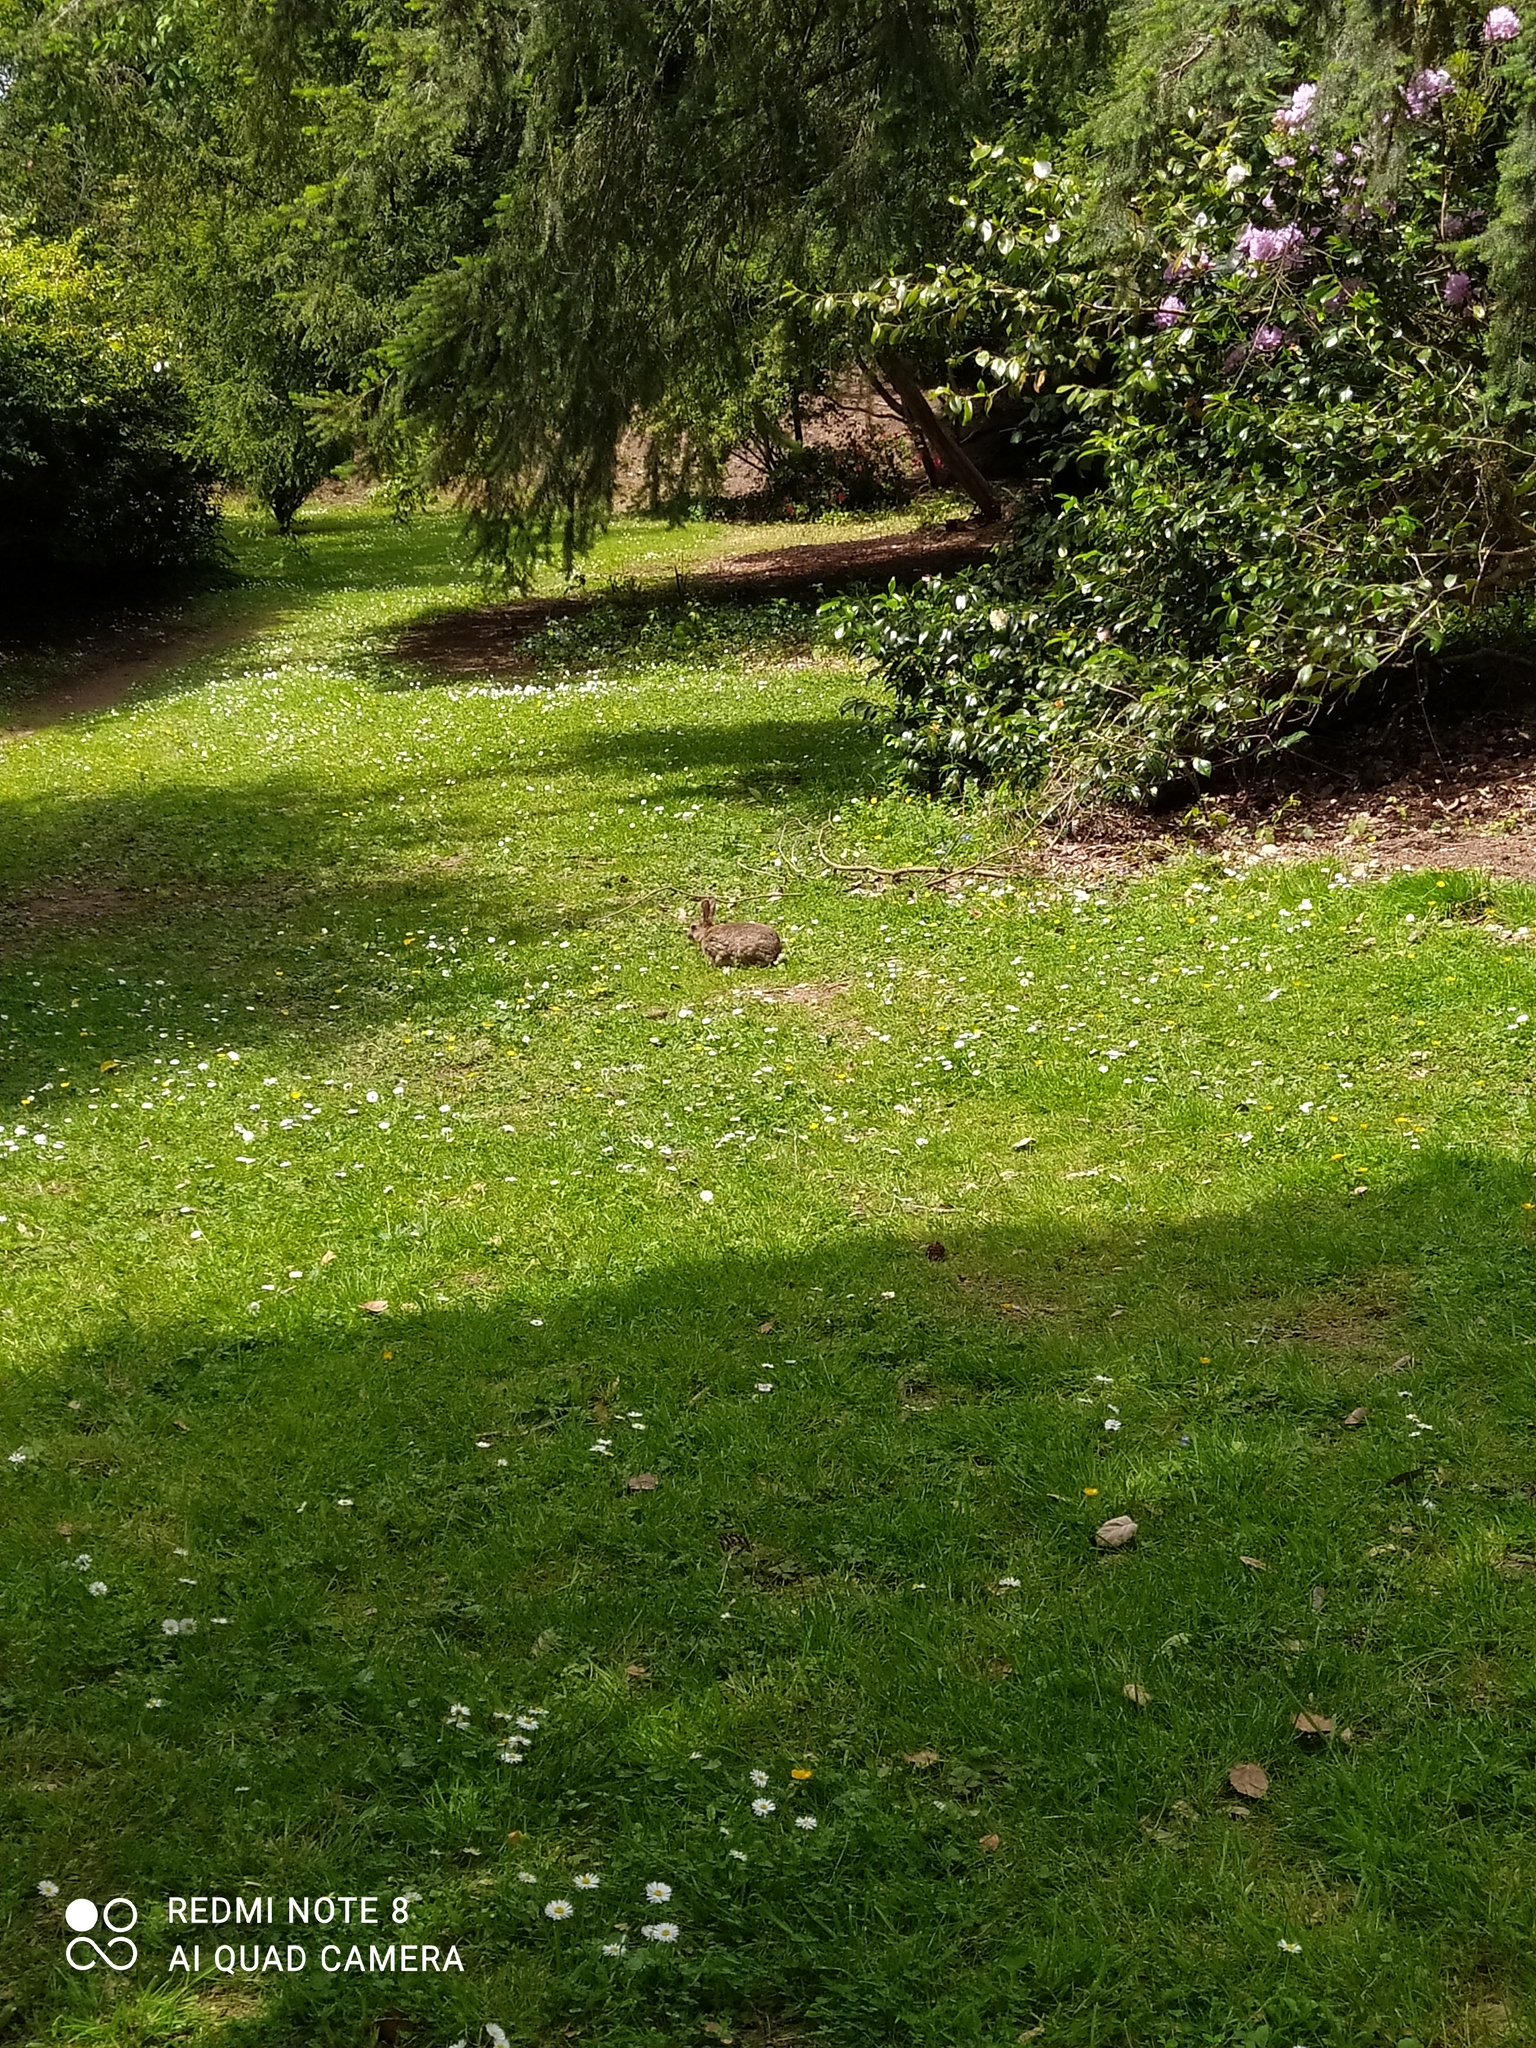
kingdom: Animalia
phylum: Chordata
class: Mammalia
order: Lagomorpha
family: Leporidae
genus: Oryctolagus
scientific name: Oryctolagus cuniculus
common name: European rabbit
